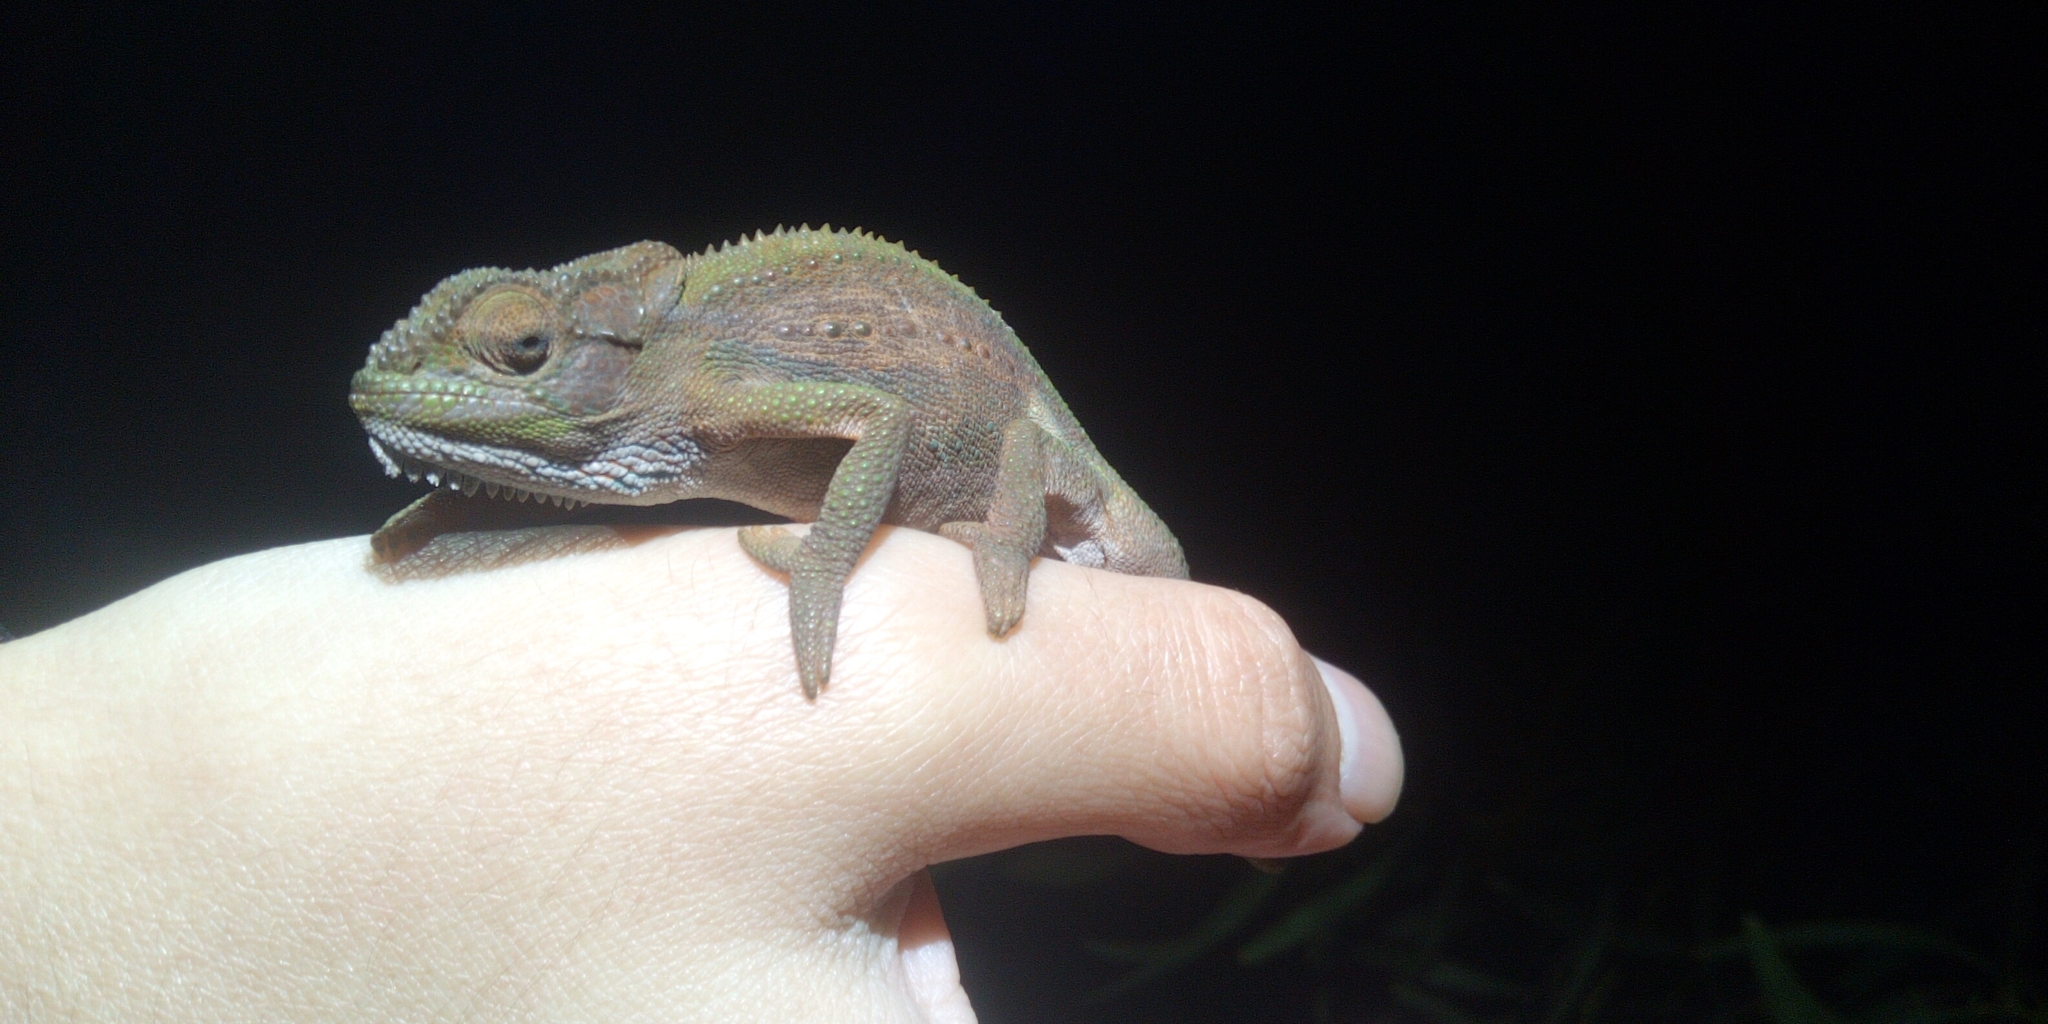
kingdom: Animalia
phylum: Chordata
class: Squamata
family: Chamaeleonidae
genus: Bradypodion
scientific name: Bradypodion pumilum
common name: Cape dwarf chameleon
